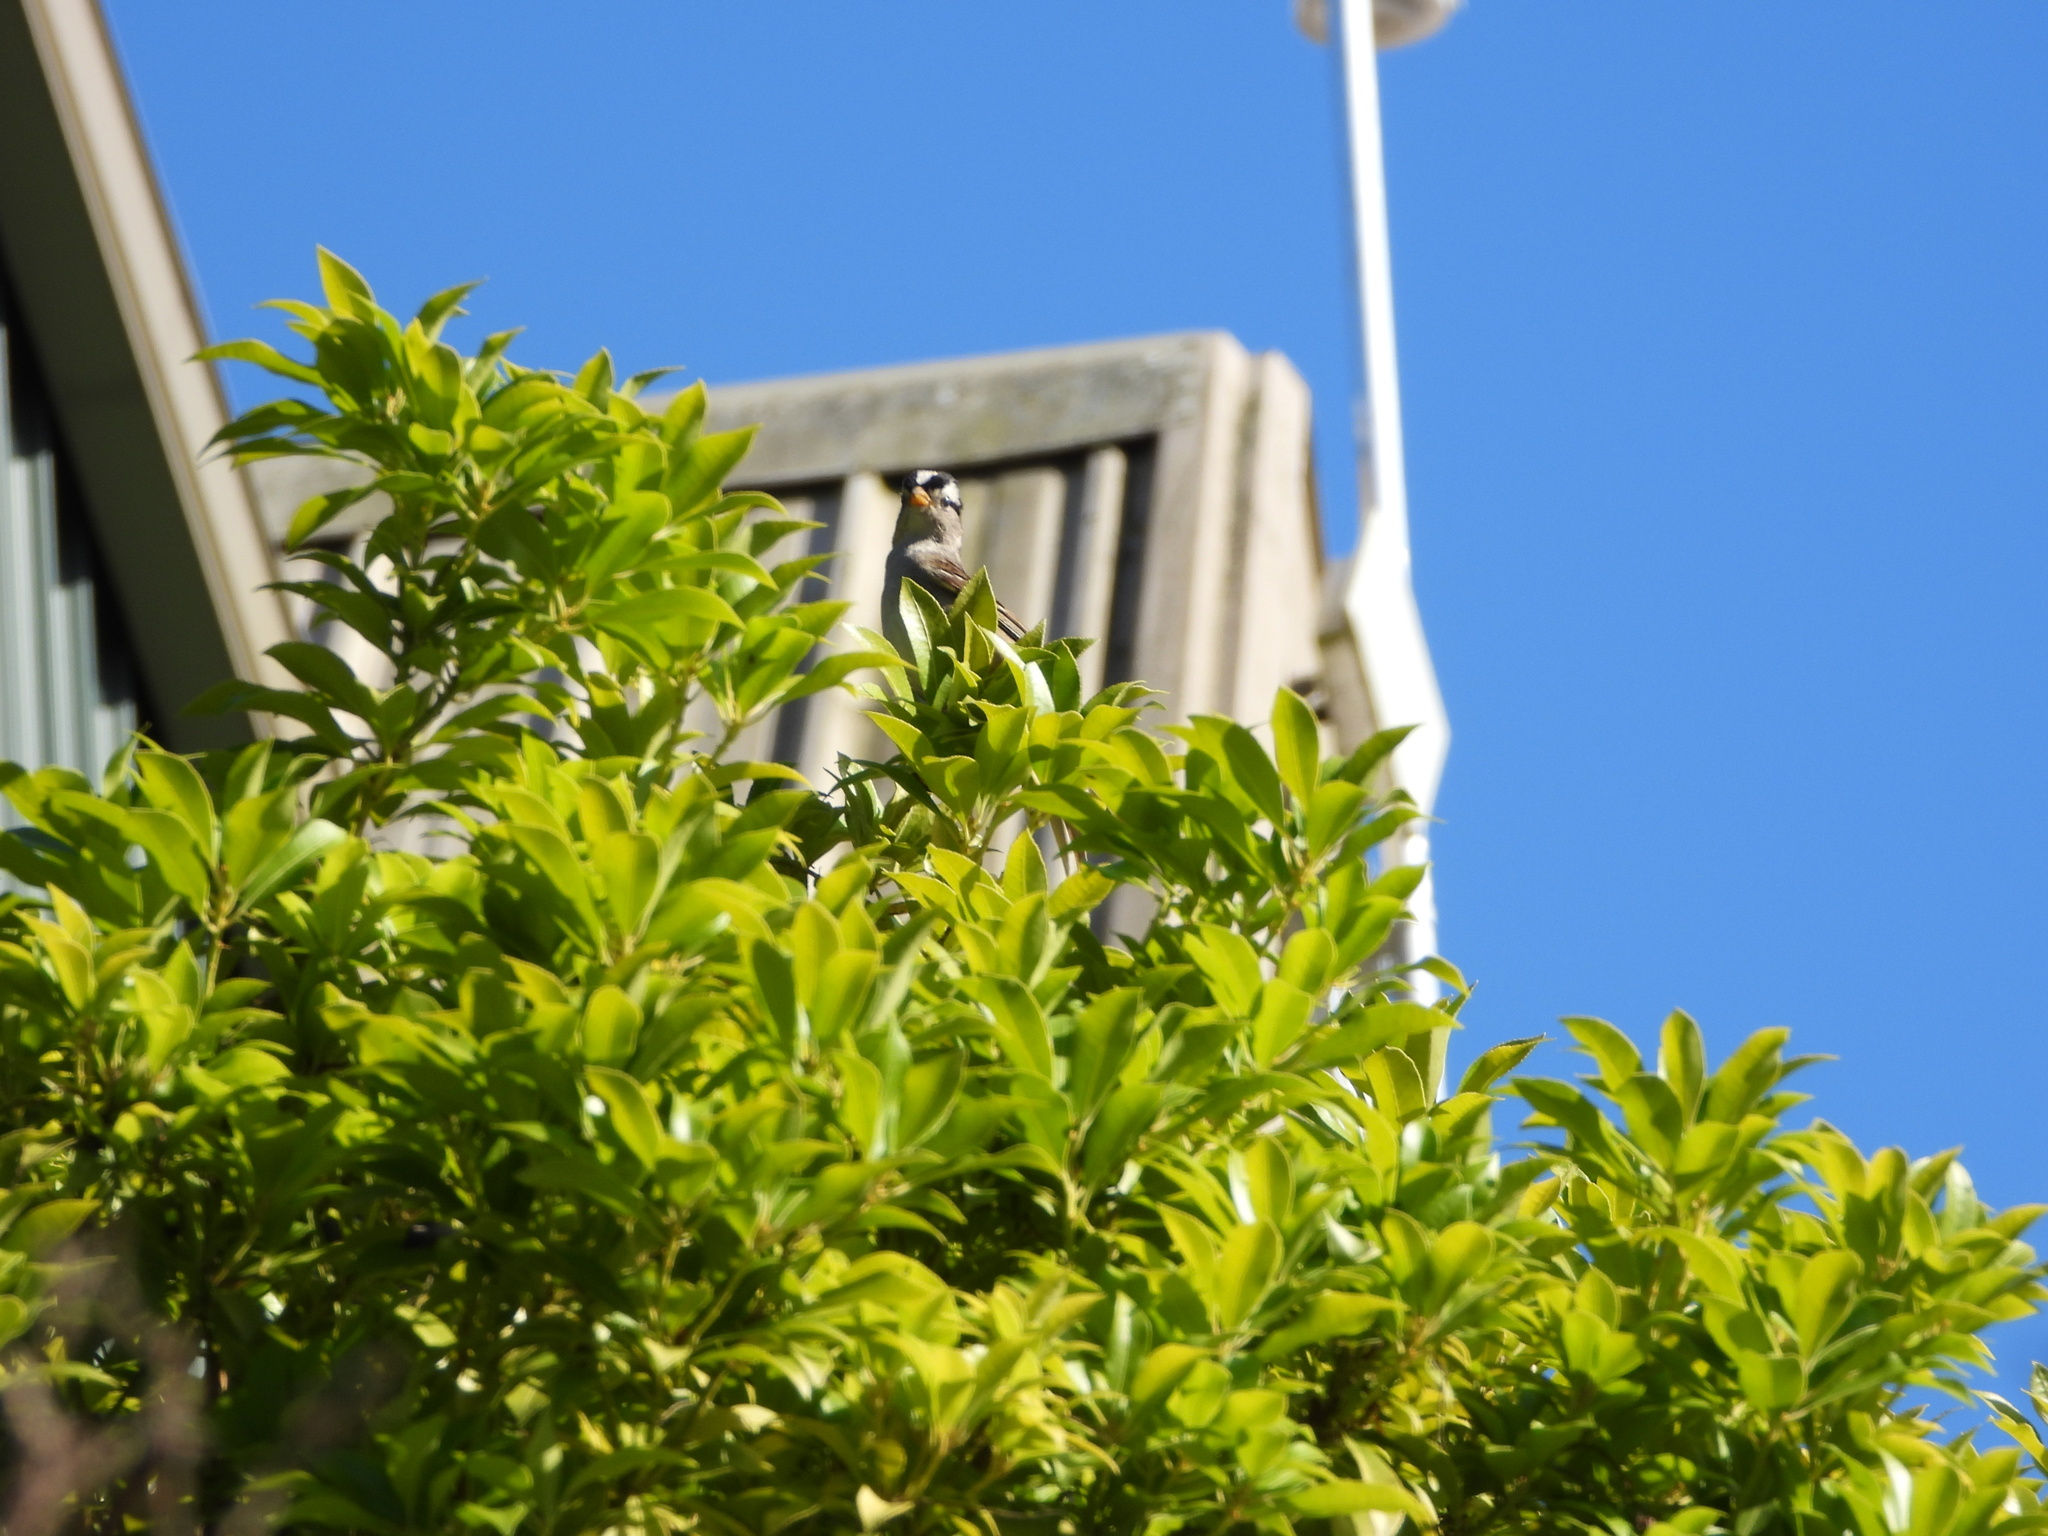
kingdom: Animalia
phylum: Chordata
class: Aves
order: Passeriformes
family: Passerellidae
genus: Zonotrichia
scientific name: Zonotrichia leucophrys
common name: White-crowned sparrow
